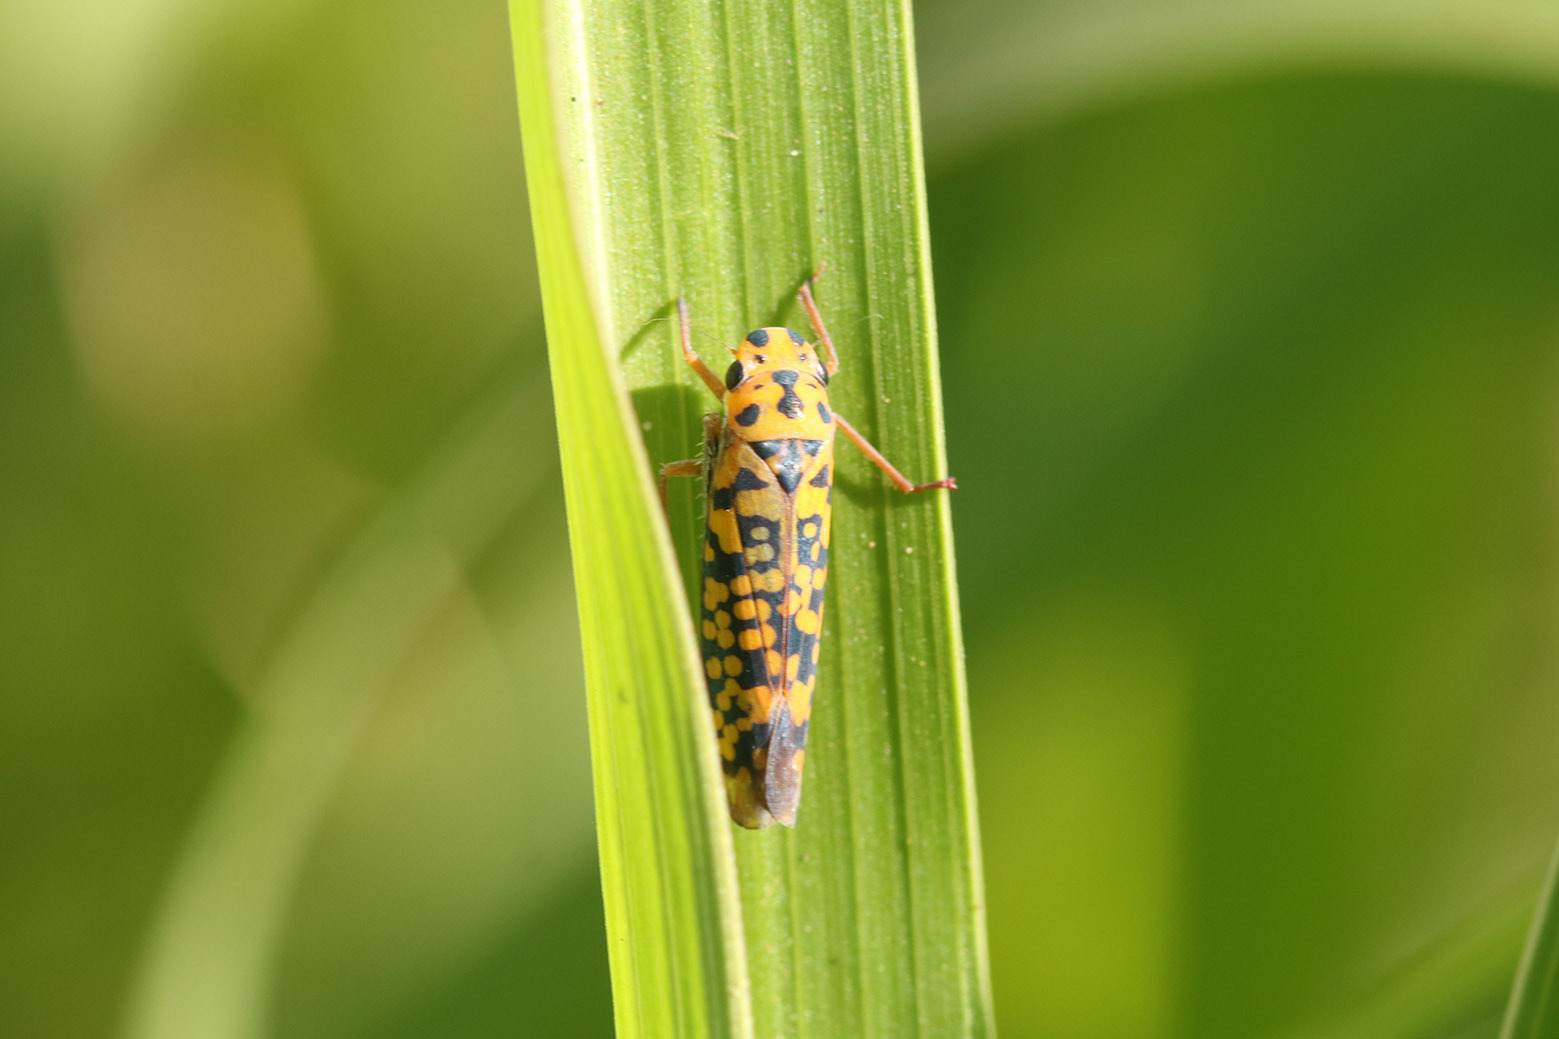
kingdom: Animalia
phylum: Arthropoda
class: Insecta
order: Hemiptera
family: Cicadellidae
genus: Pawiloma
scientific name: Pawiloma victima
